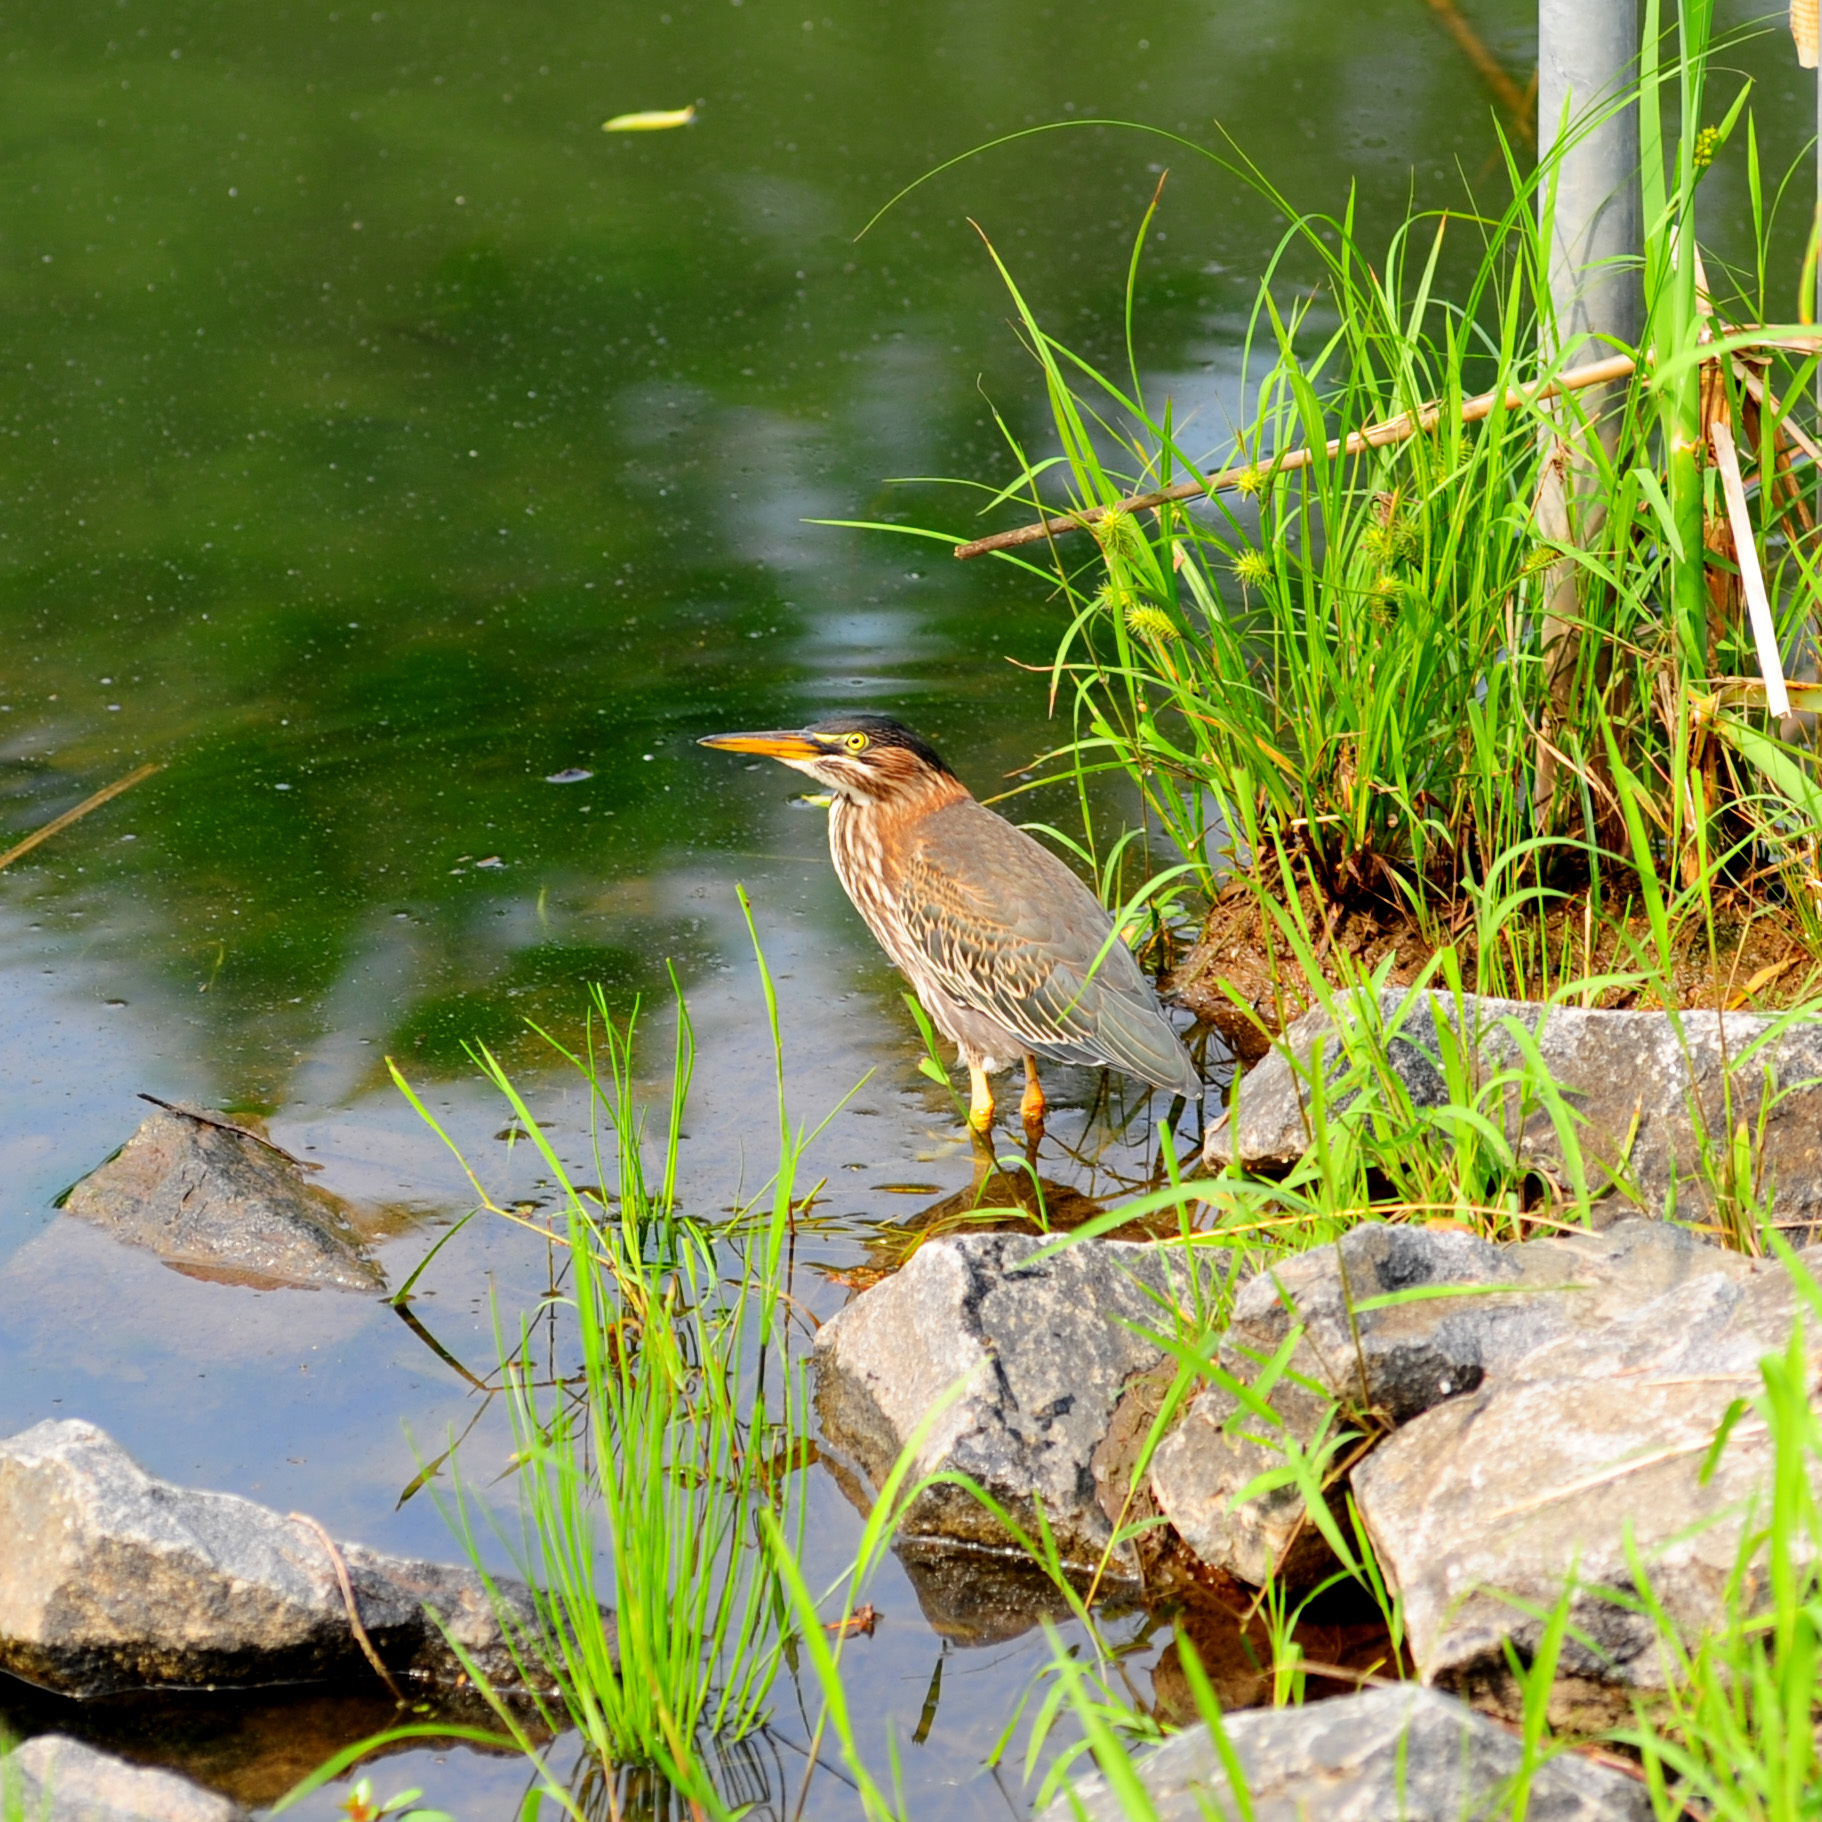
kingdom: Animalia
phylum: Chordata
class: Aves
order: Pelecaniformes
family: Ardeidae
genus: Butorides
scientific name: Butorides virescens
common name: Green heron
